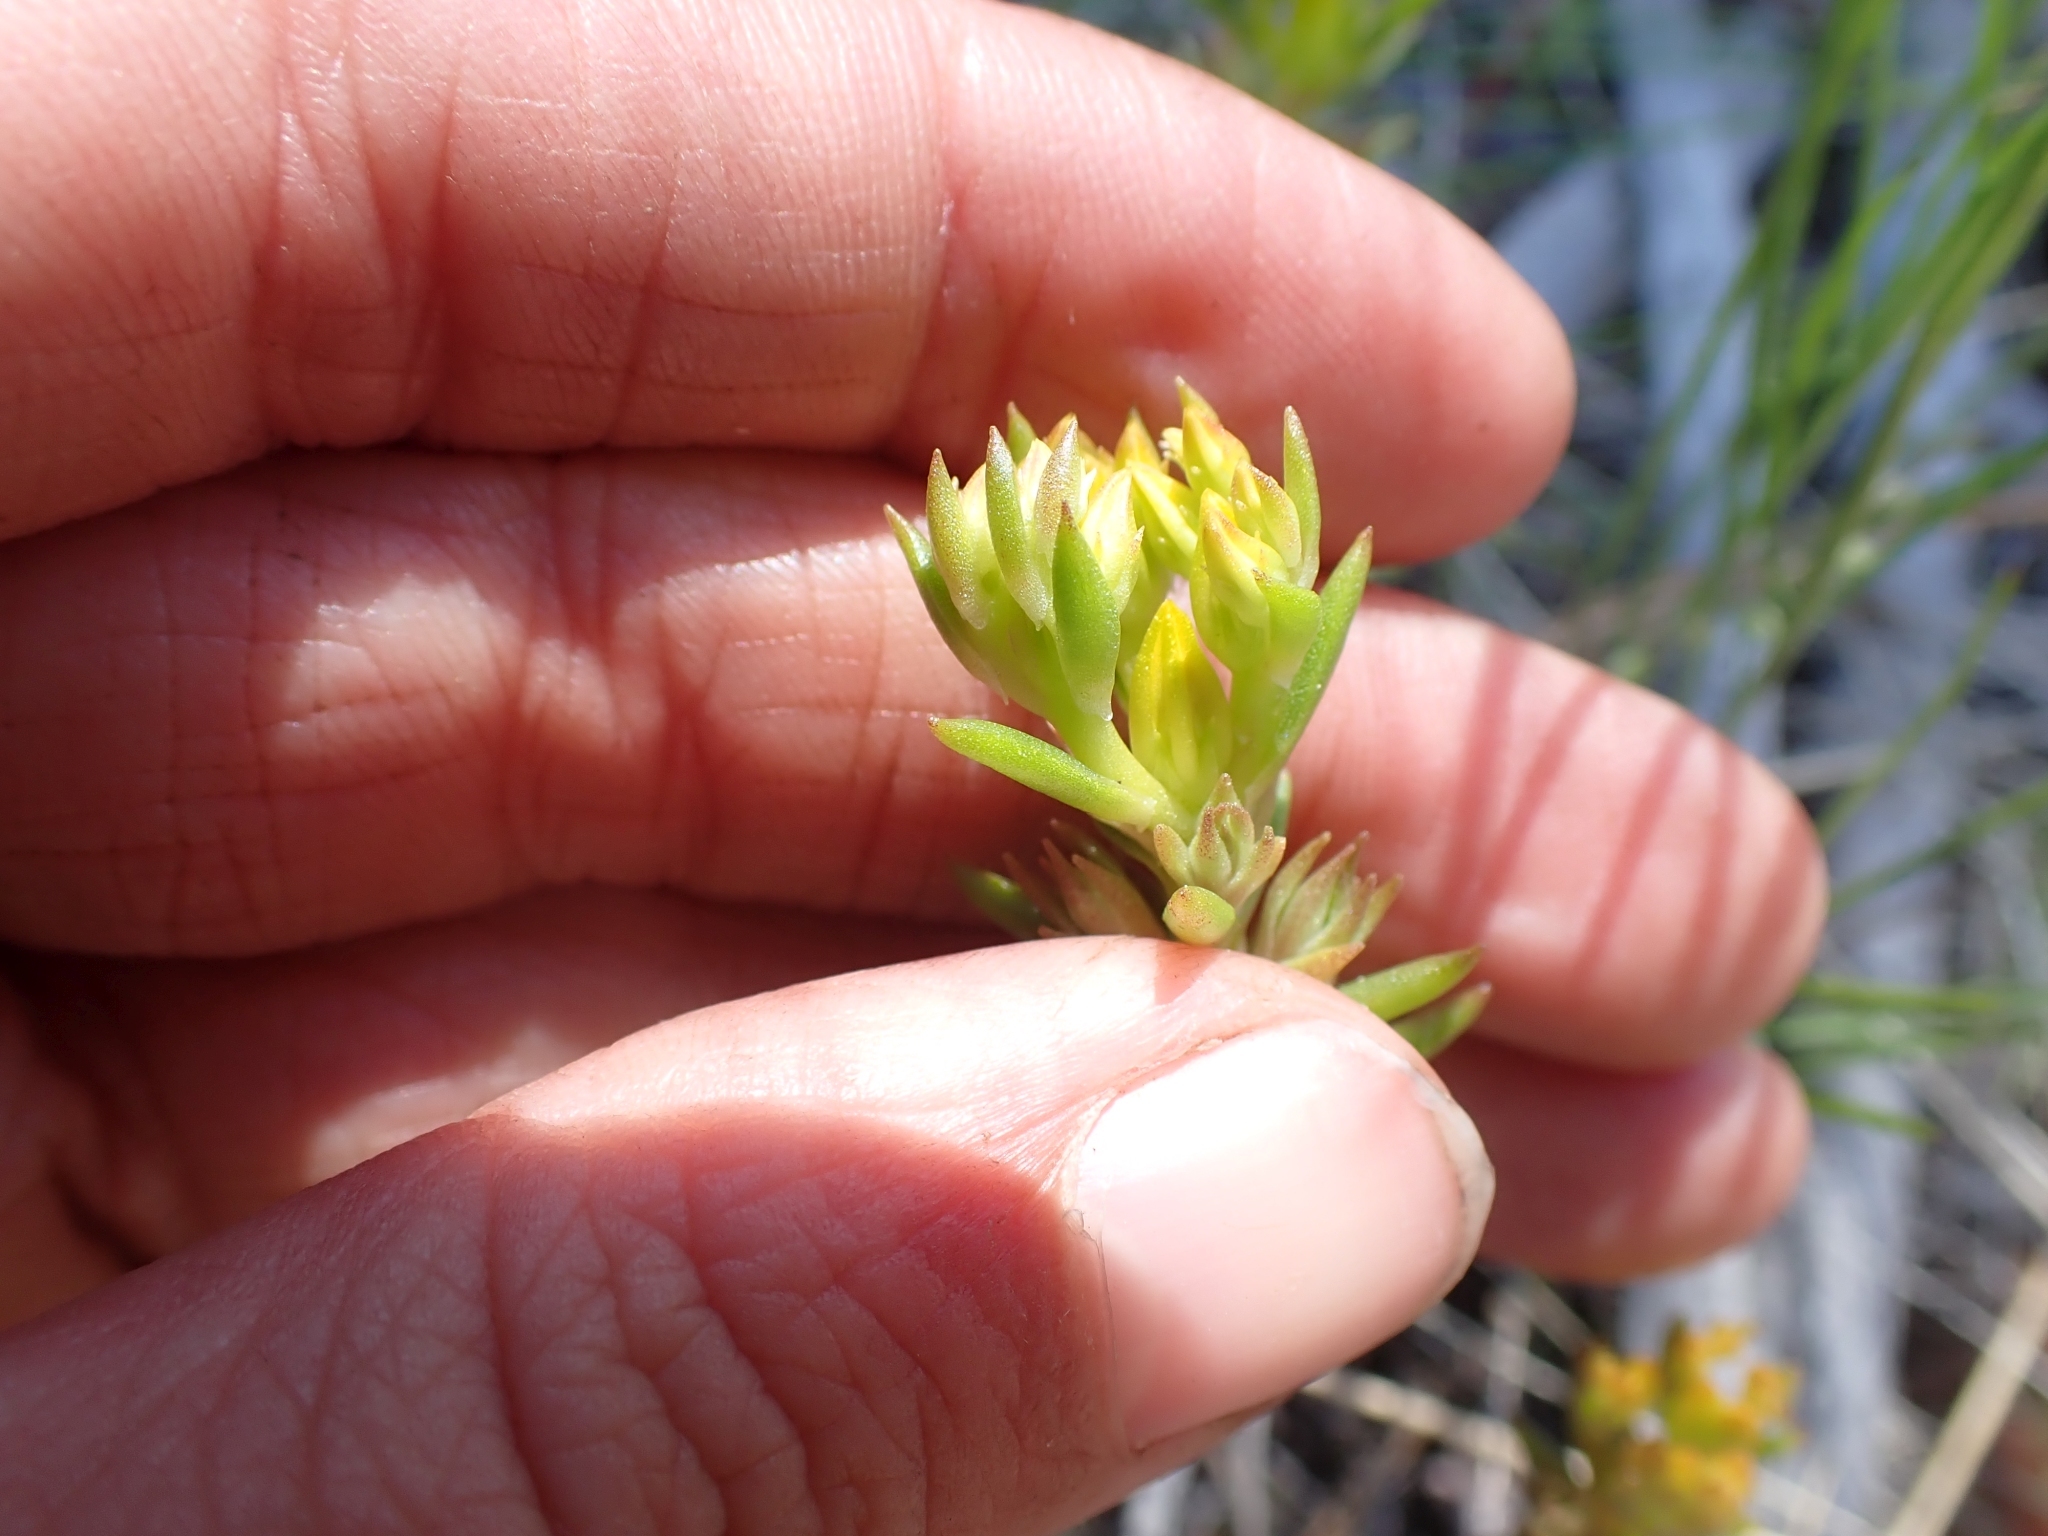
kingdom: Plantae
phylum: Tracheophyta
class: Magnoliopsida
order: Saxifragales
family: Crassulaceae
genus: Sedum
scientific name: Sedum stenopetalum
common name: Narrow-petaled stonecrop
